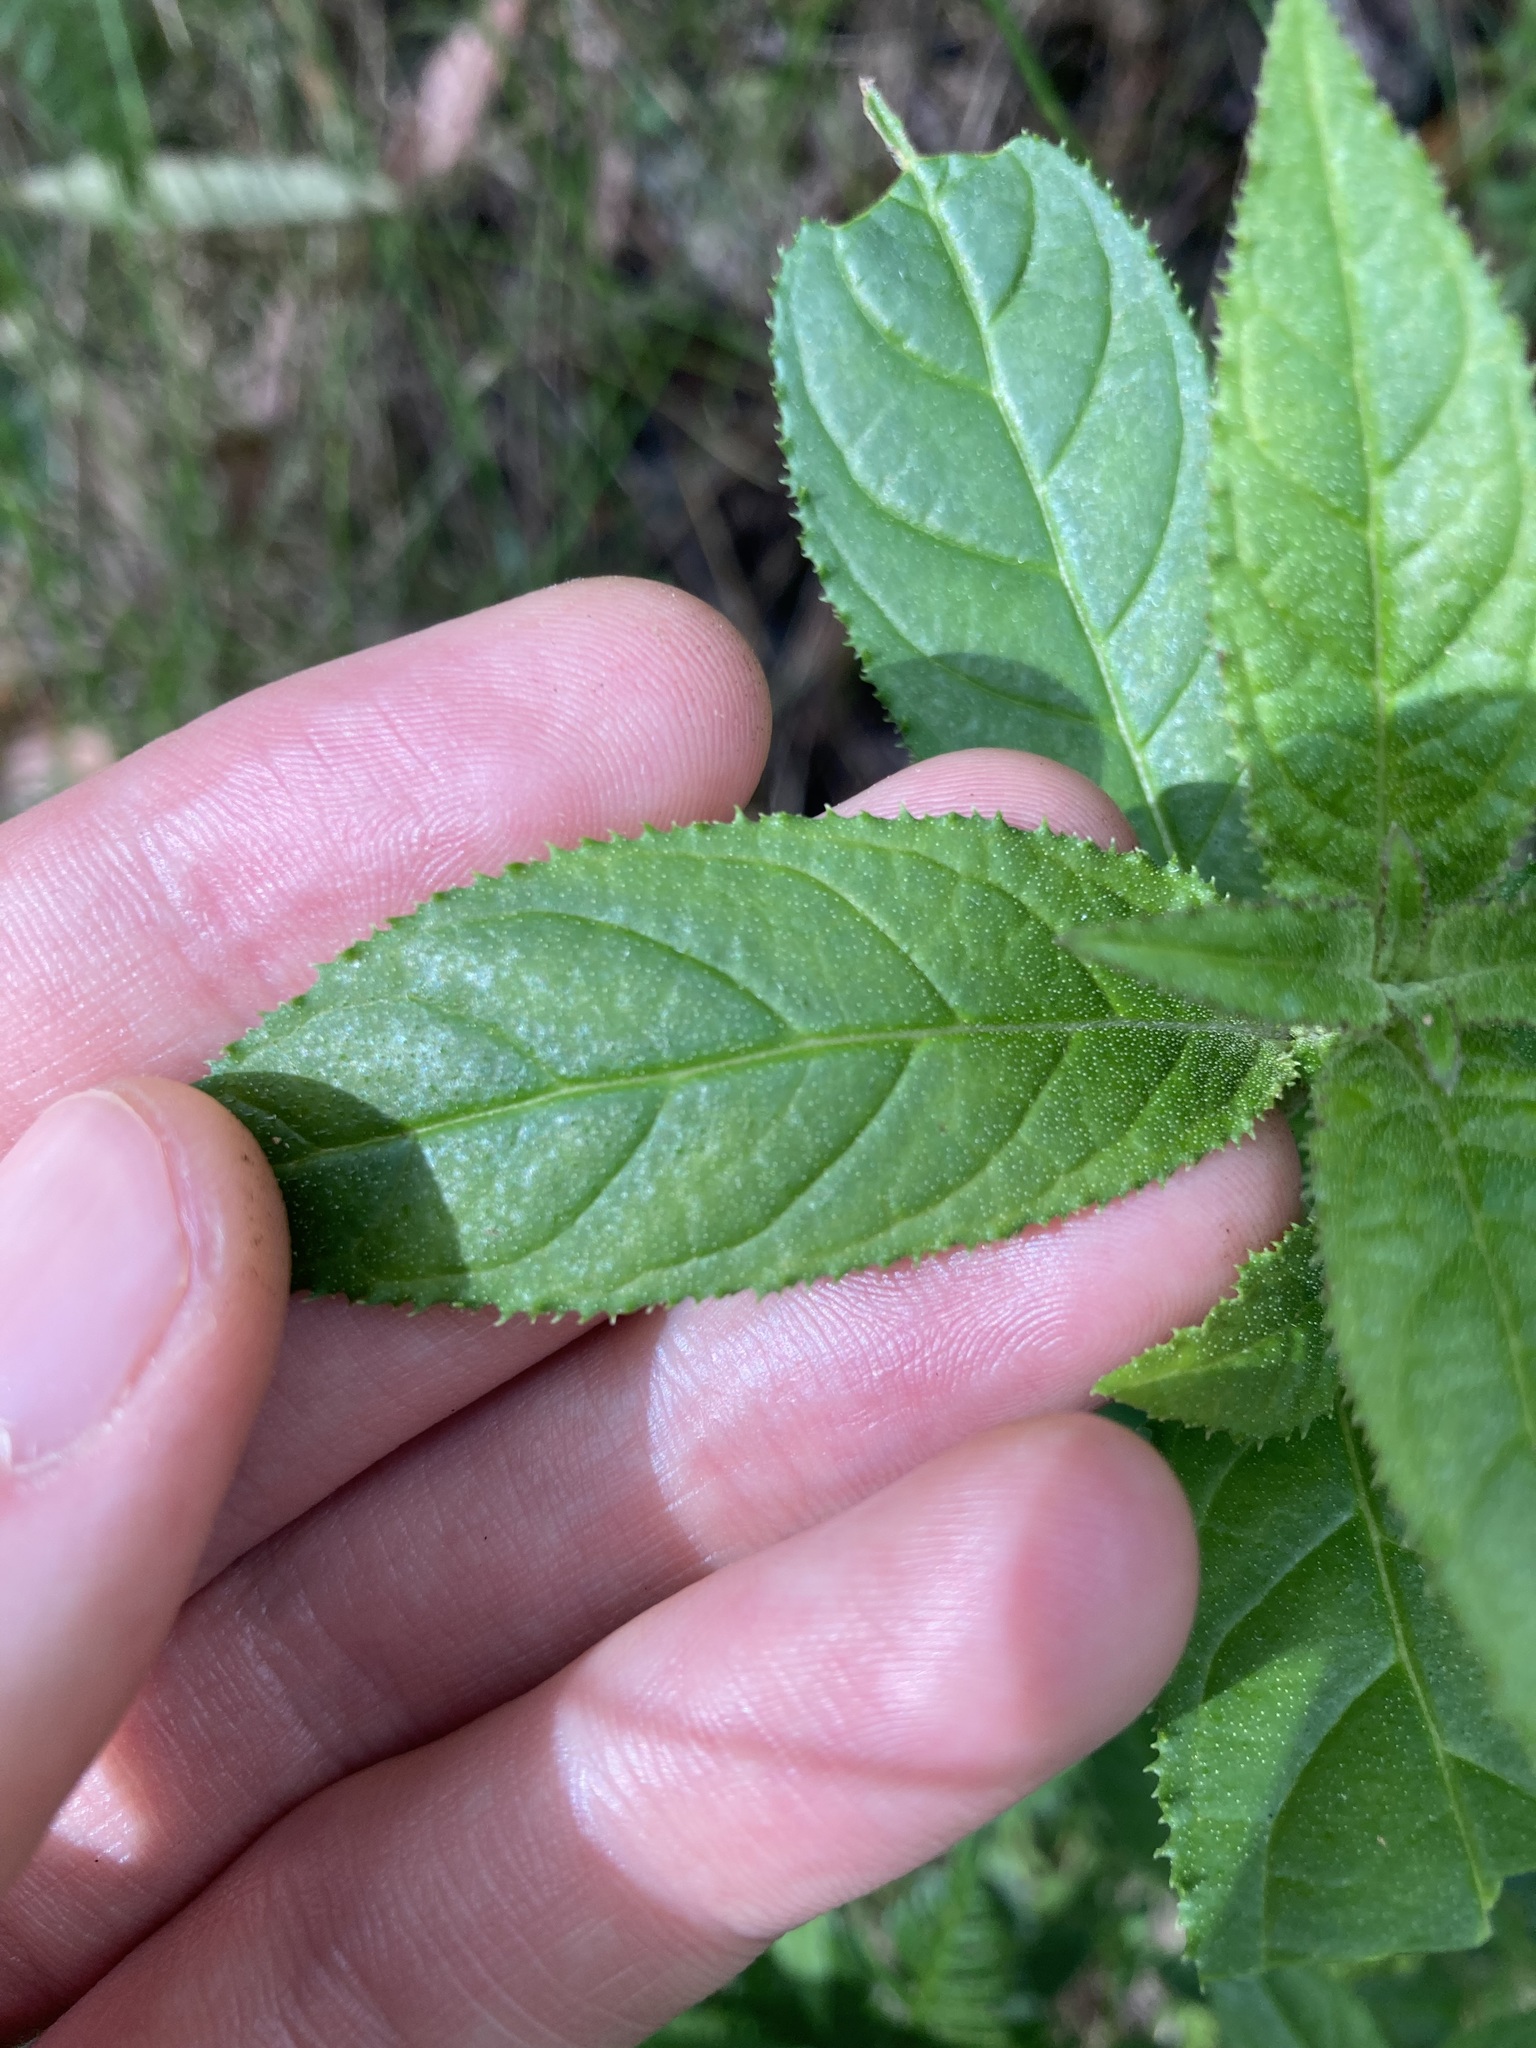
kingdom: Plantae
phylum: Tracheophyta
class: Magnoliopsida
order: Lamiales
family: Lamiaceae
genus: Prostanthera
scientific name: Prostanthera lasianthos
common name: Mountain-lilac
